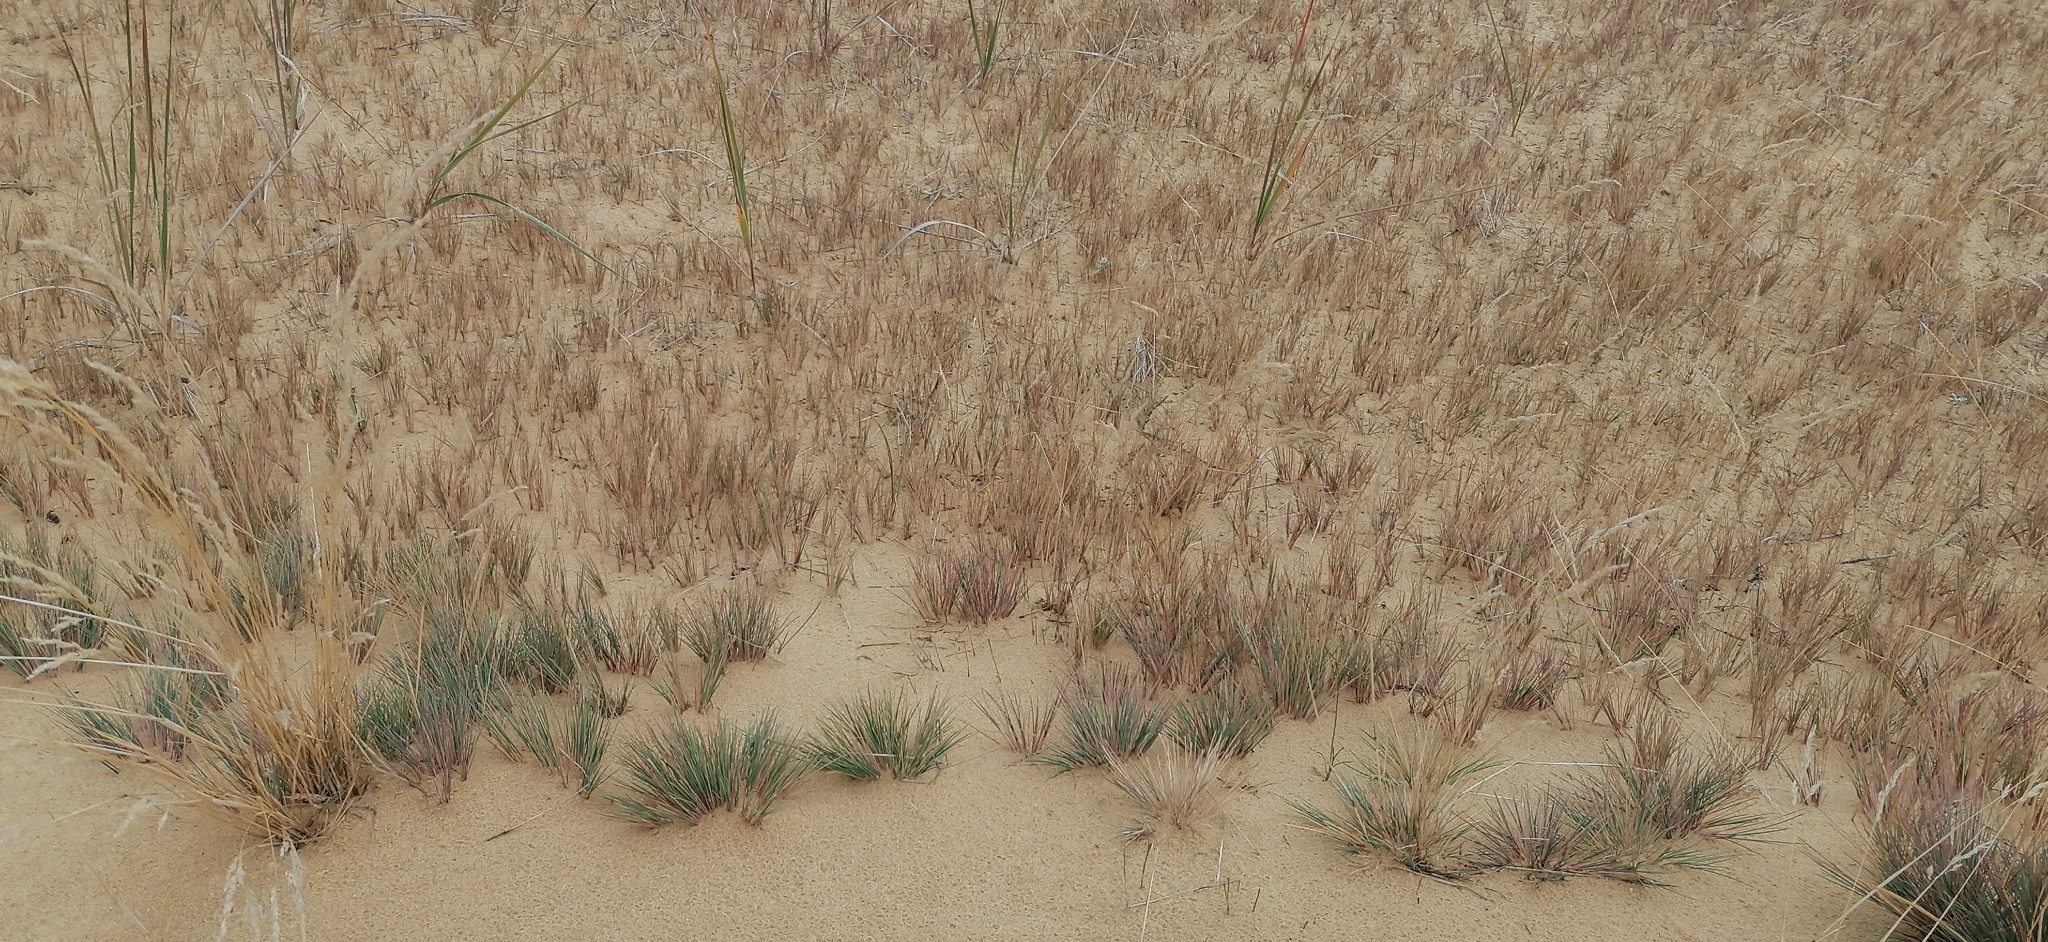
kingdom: Plantae
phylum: Tracheophyta
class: Liliopsida
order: Poales
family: Poaceae
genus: Corynephorus
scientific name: Corynephorus canescens
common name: Grey hair-grass
